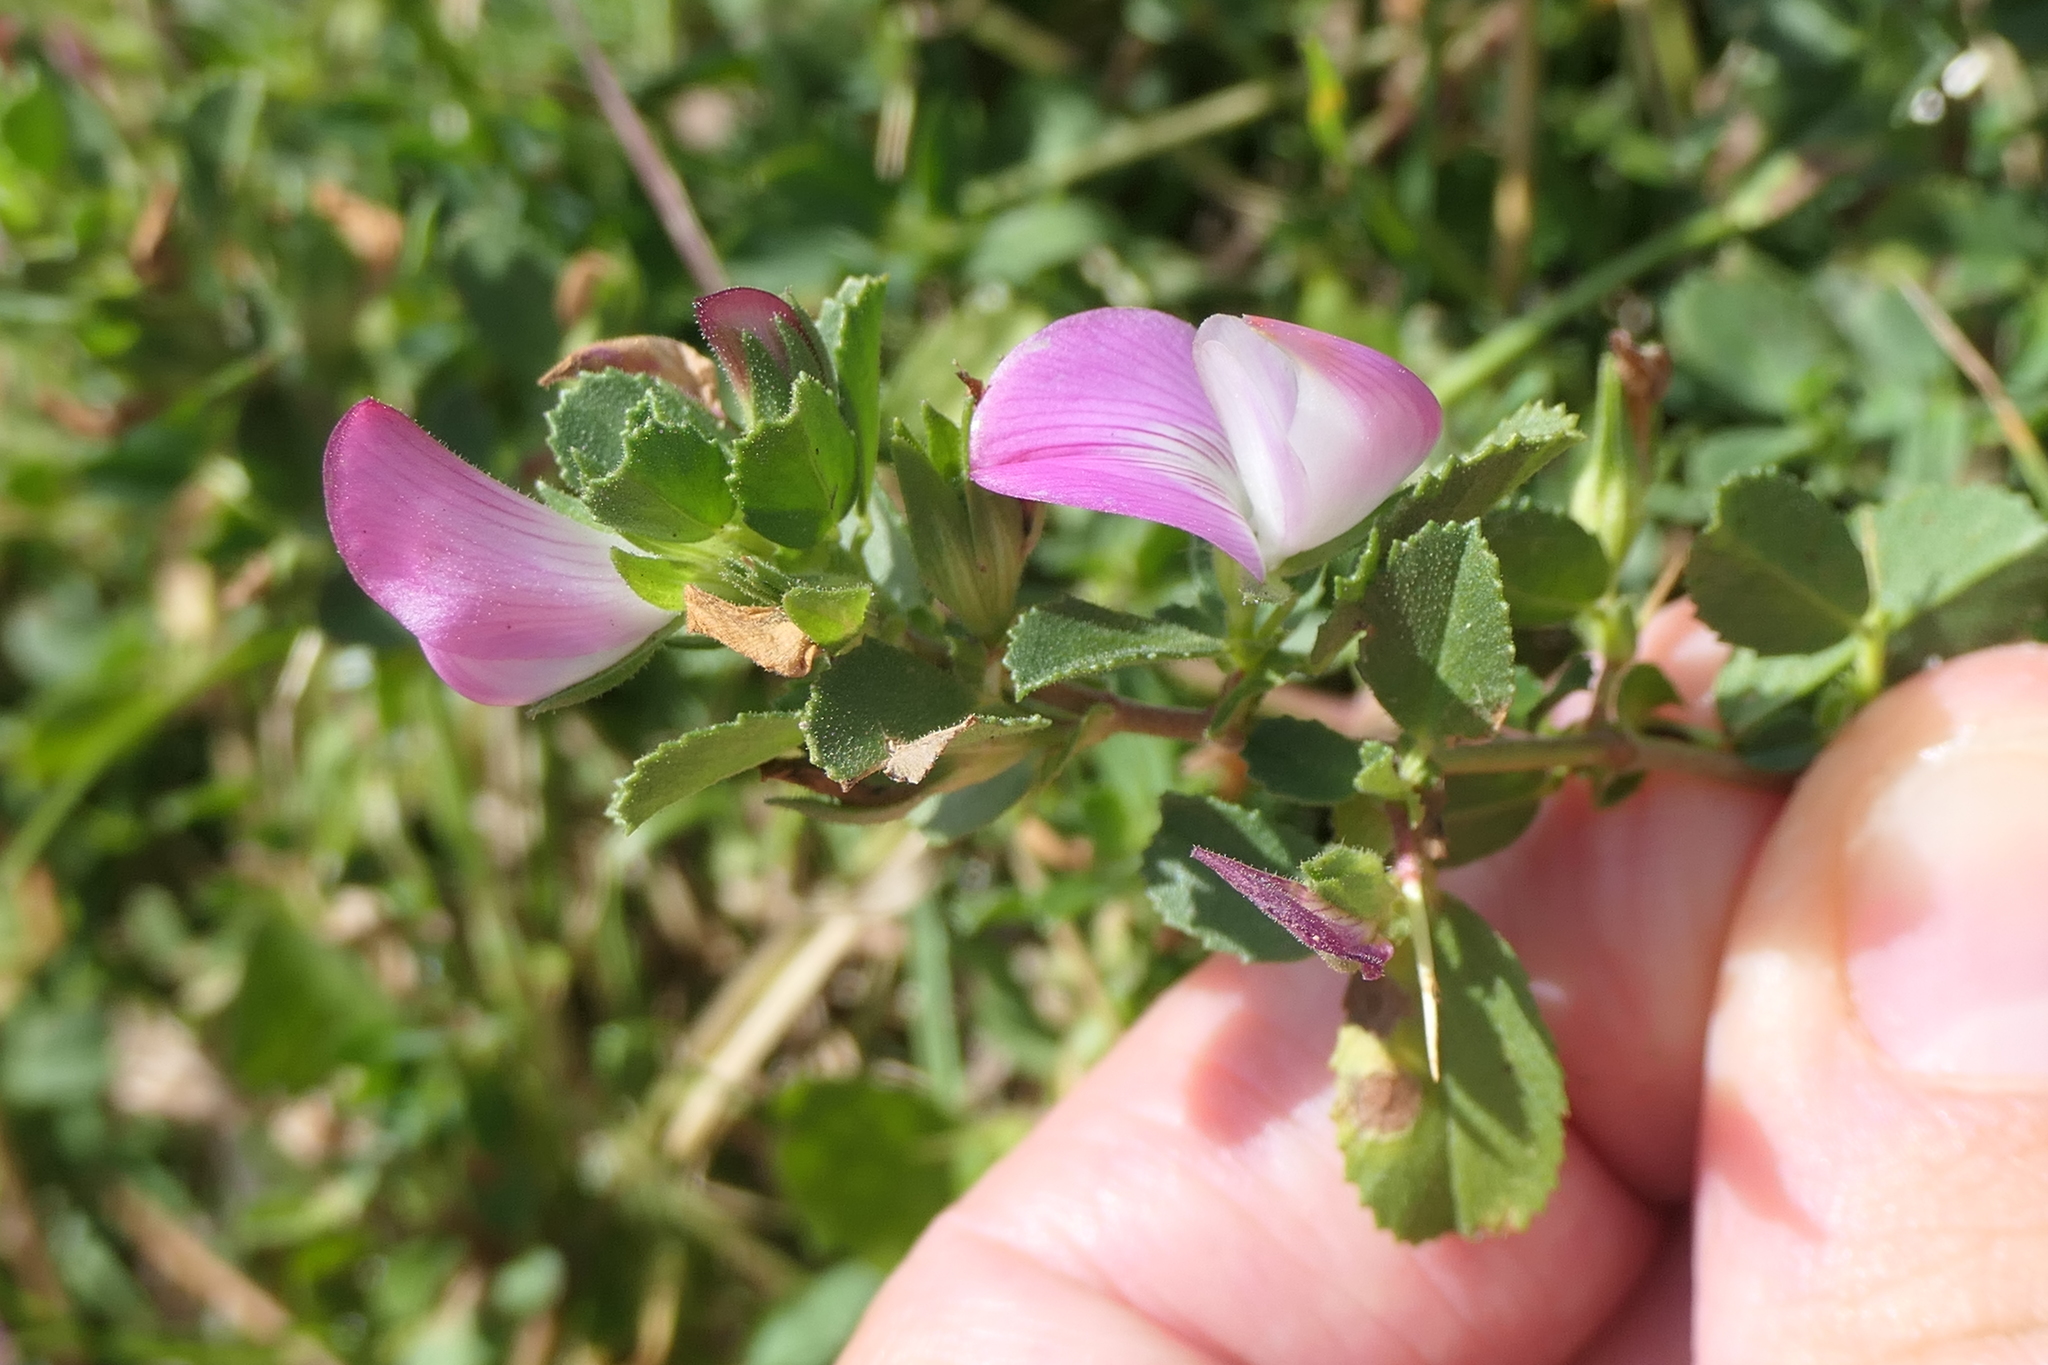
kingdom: Plantae
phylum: Tracheophyta
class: Magnoliopsida
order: Fabales
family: Fabaceae
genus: Ononis
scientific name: Ononis spinosa
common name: Spiny restharrow
